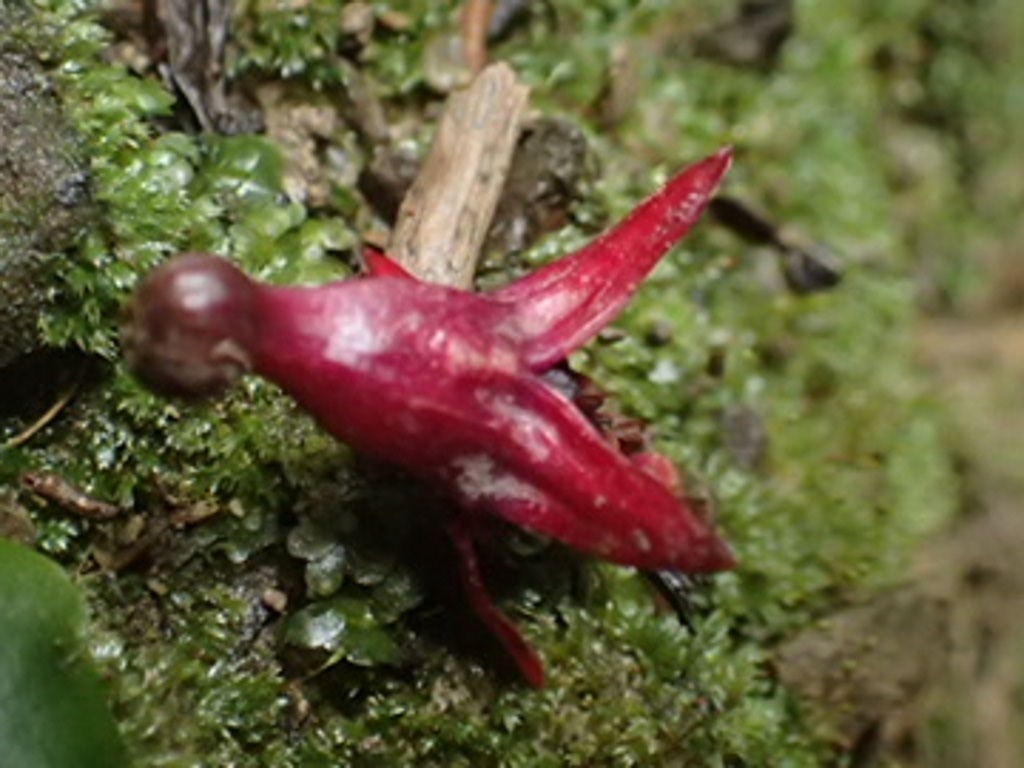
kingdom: Plantae
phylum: Tracheophyta
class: Magnoliopsida
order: Myrtales
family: Onagraceae
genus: Fuchsia
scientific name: Fuchsia excorticata
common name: Tree fuchsia
